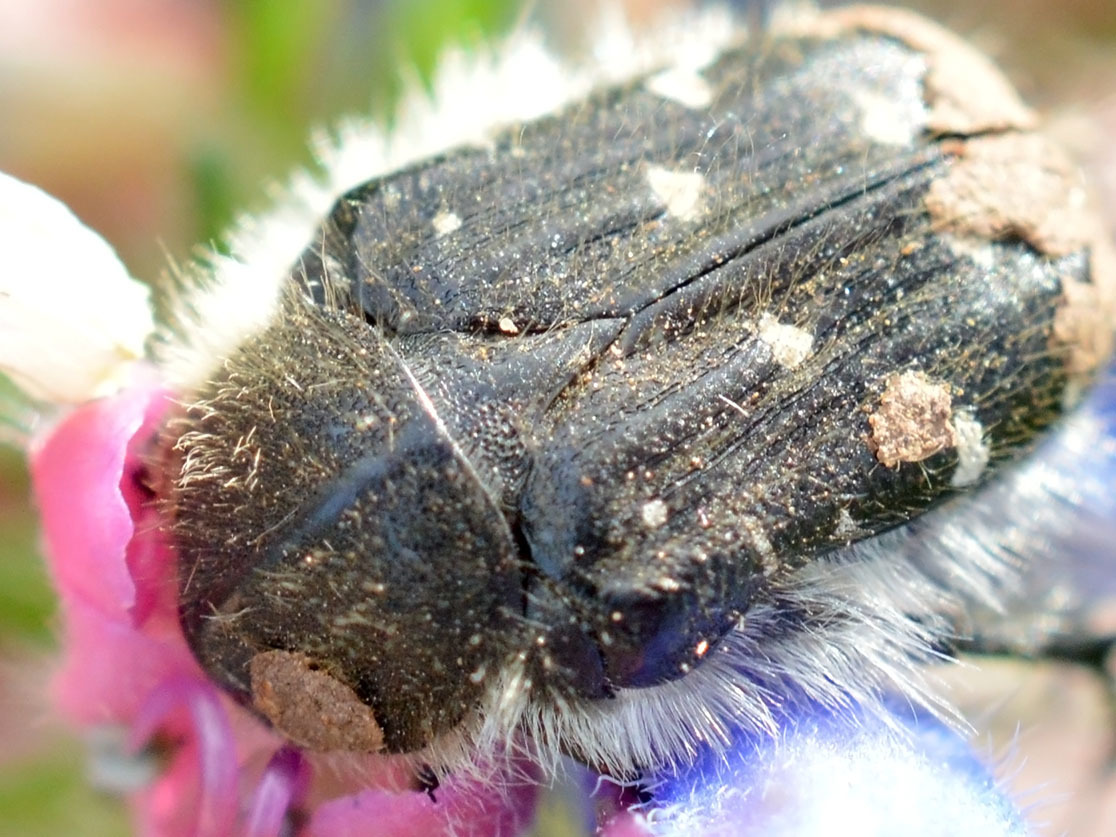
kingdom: Animalia
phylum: Arthropoda
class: Insecta
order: Coleoptera
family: Scarabaeidae
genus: Tropinota
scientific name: Tropinota hirta
